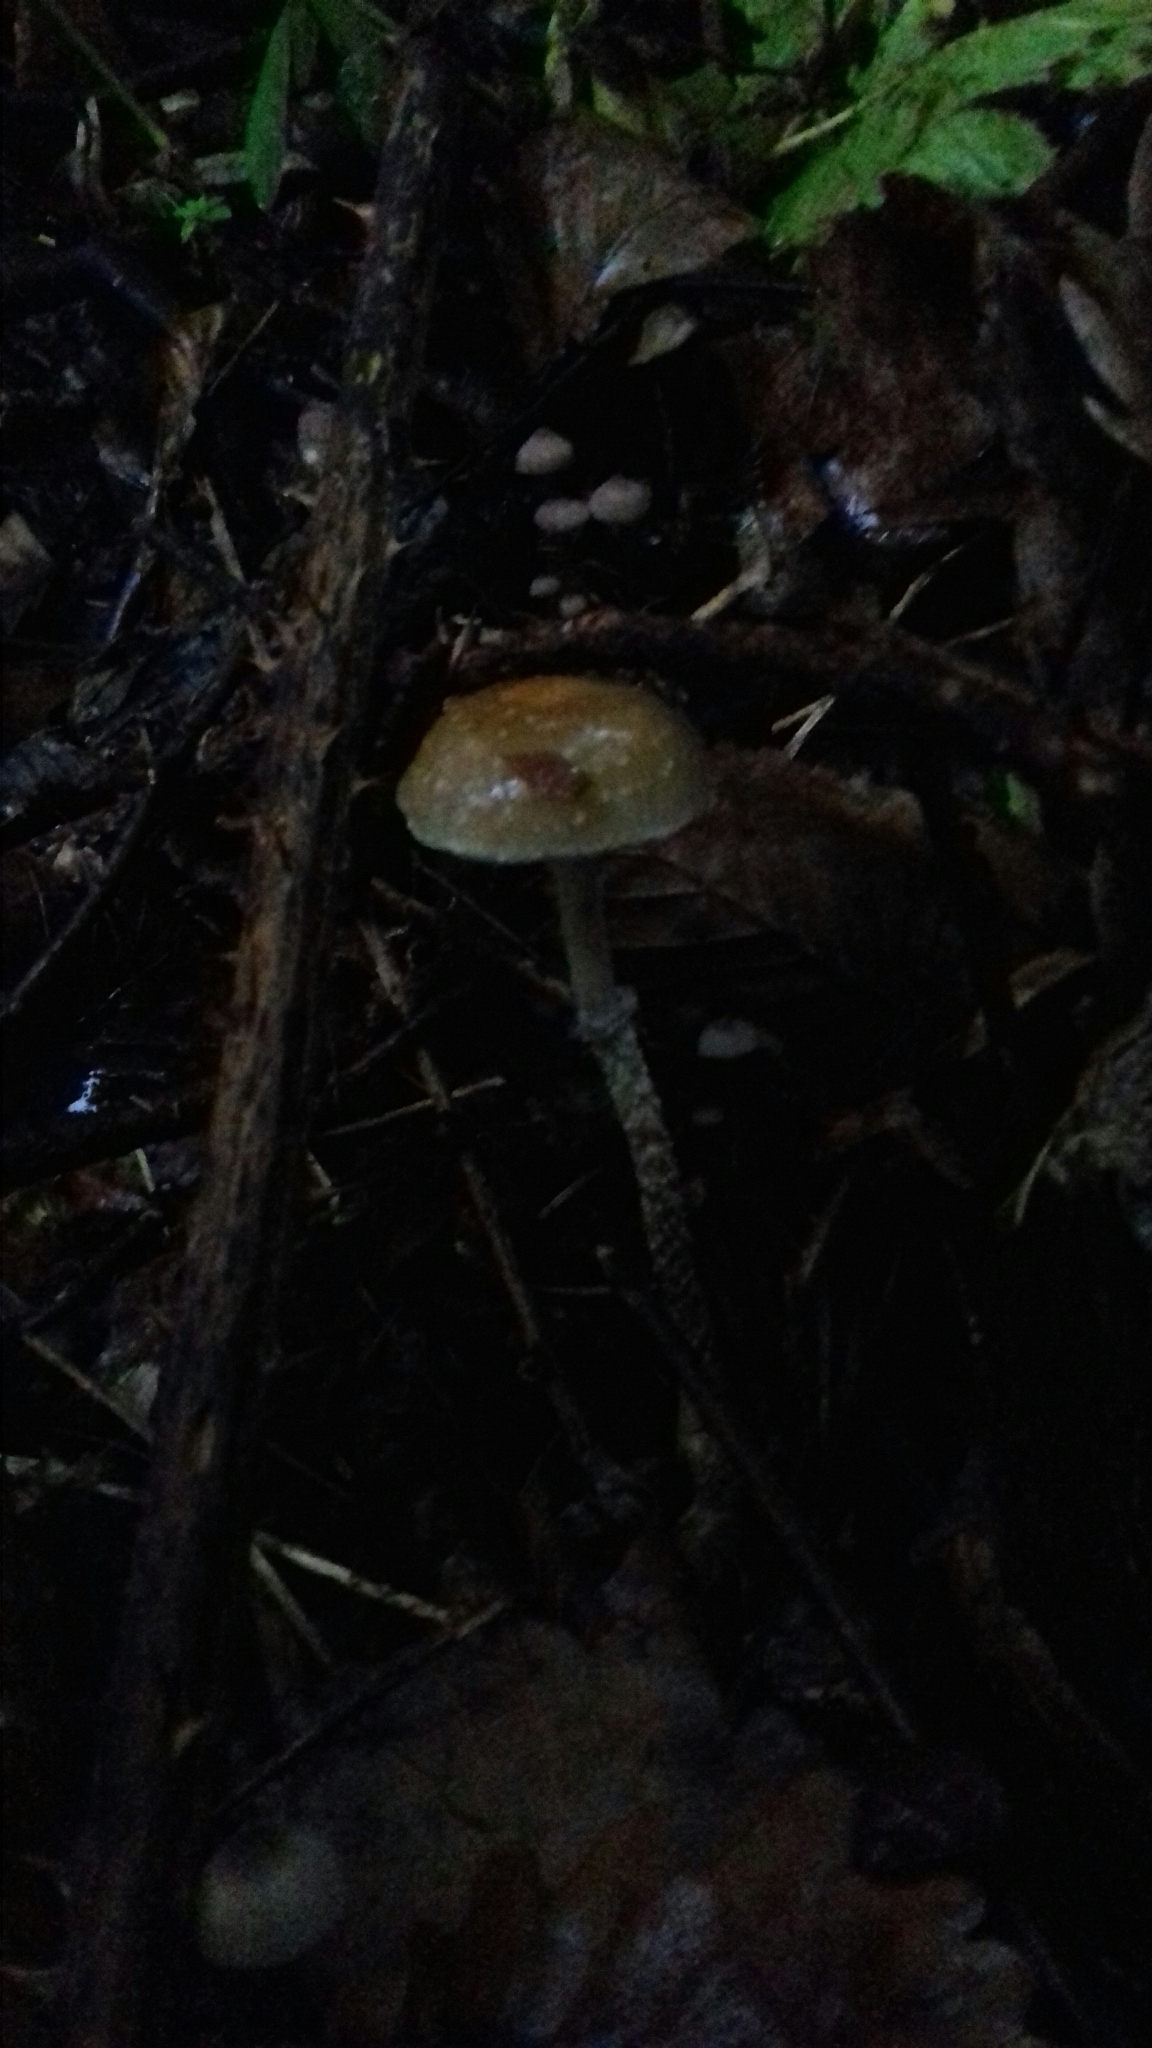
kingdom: Fungi
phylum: Basidiomycota
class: Agaricomycetes
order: Agaricales
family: Strophariaceae
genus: Leratiomyces
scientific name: Leratiomyces squamosus
